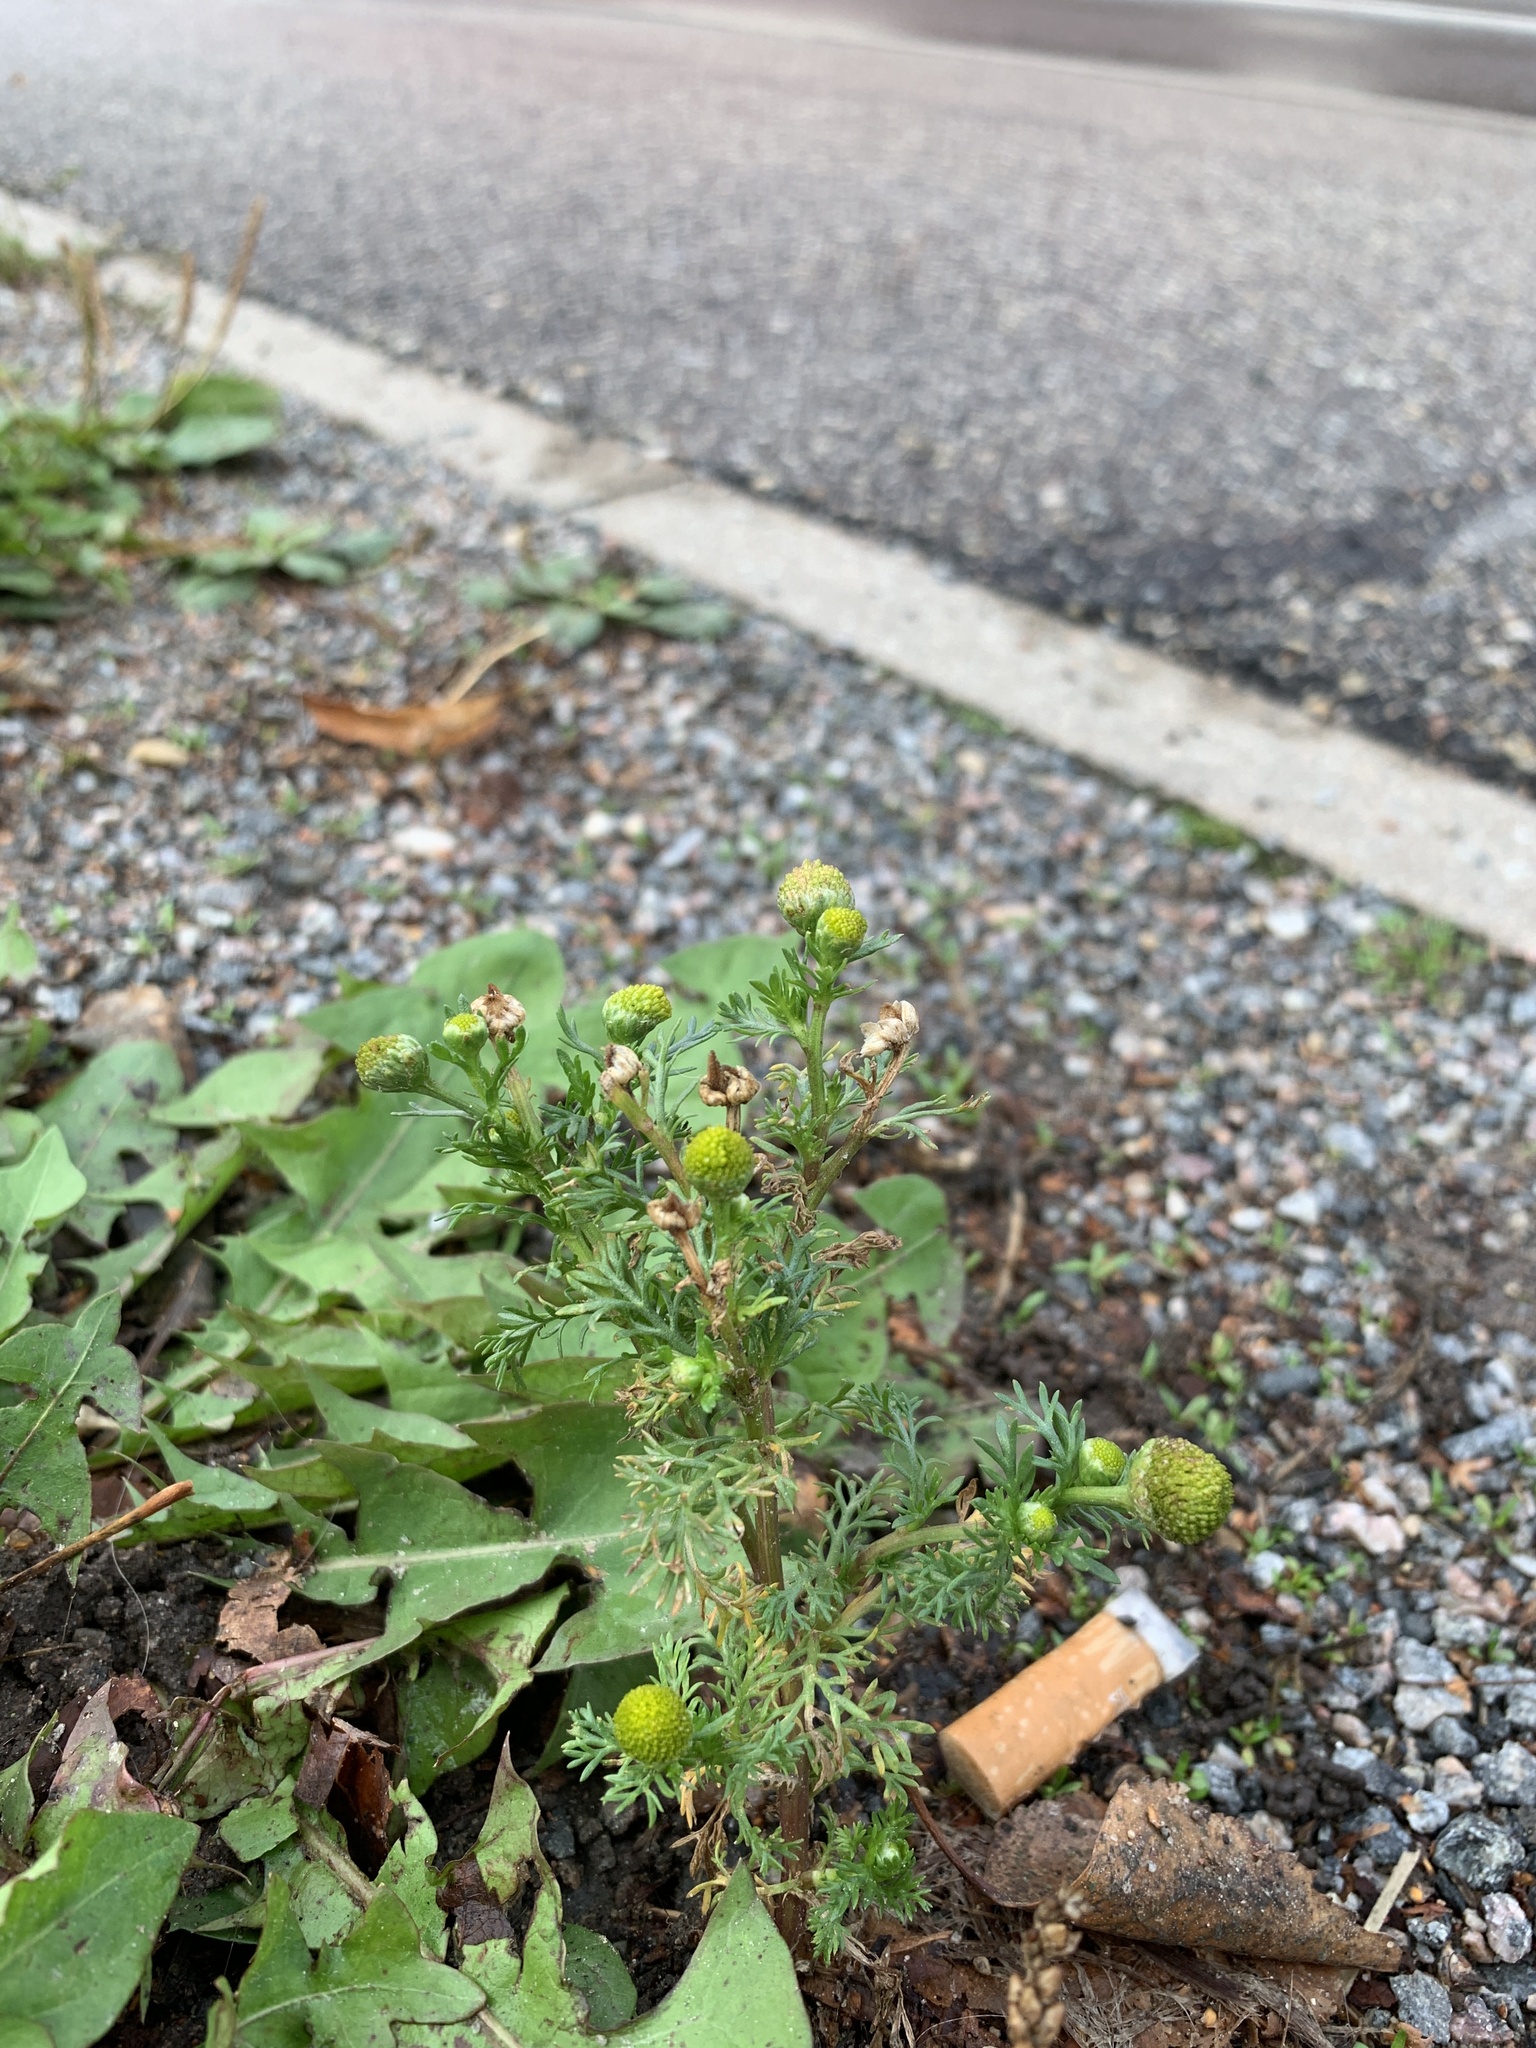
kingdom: Plantae
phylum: Tracheophyta
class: Magnoliopsida
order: Asterales
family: Asteraceae
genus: Matricaria
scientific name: Matricaria discoidea
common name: Disc mayweed
